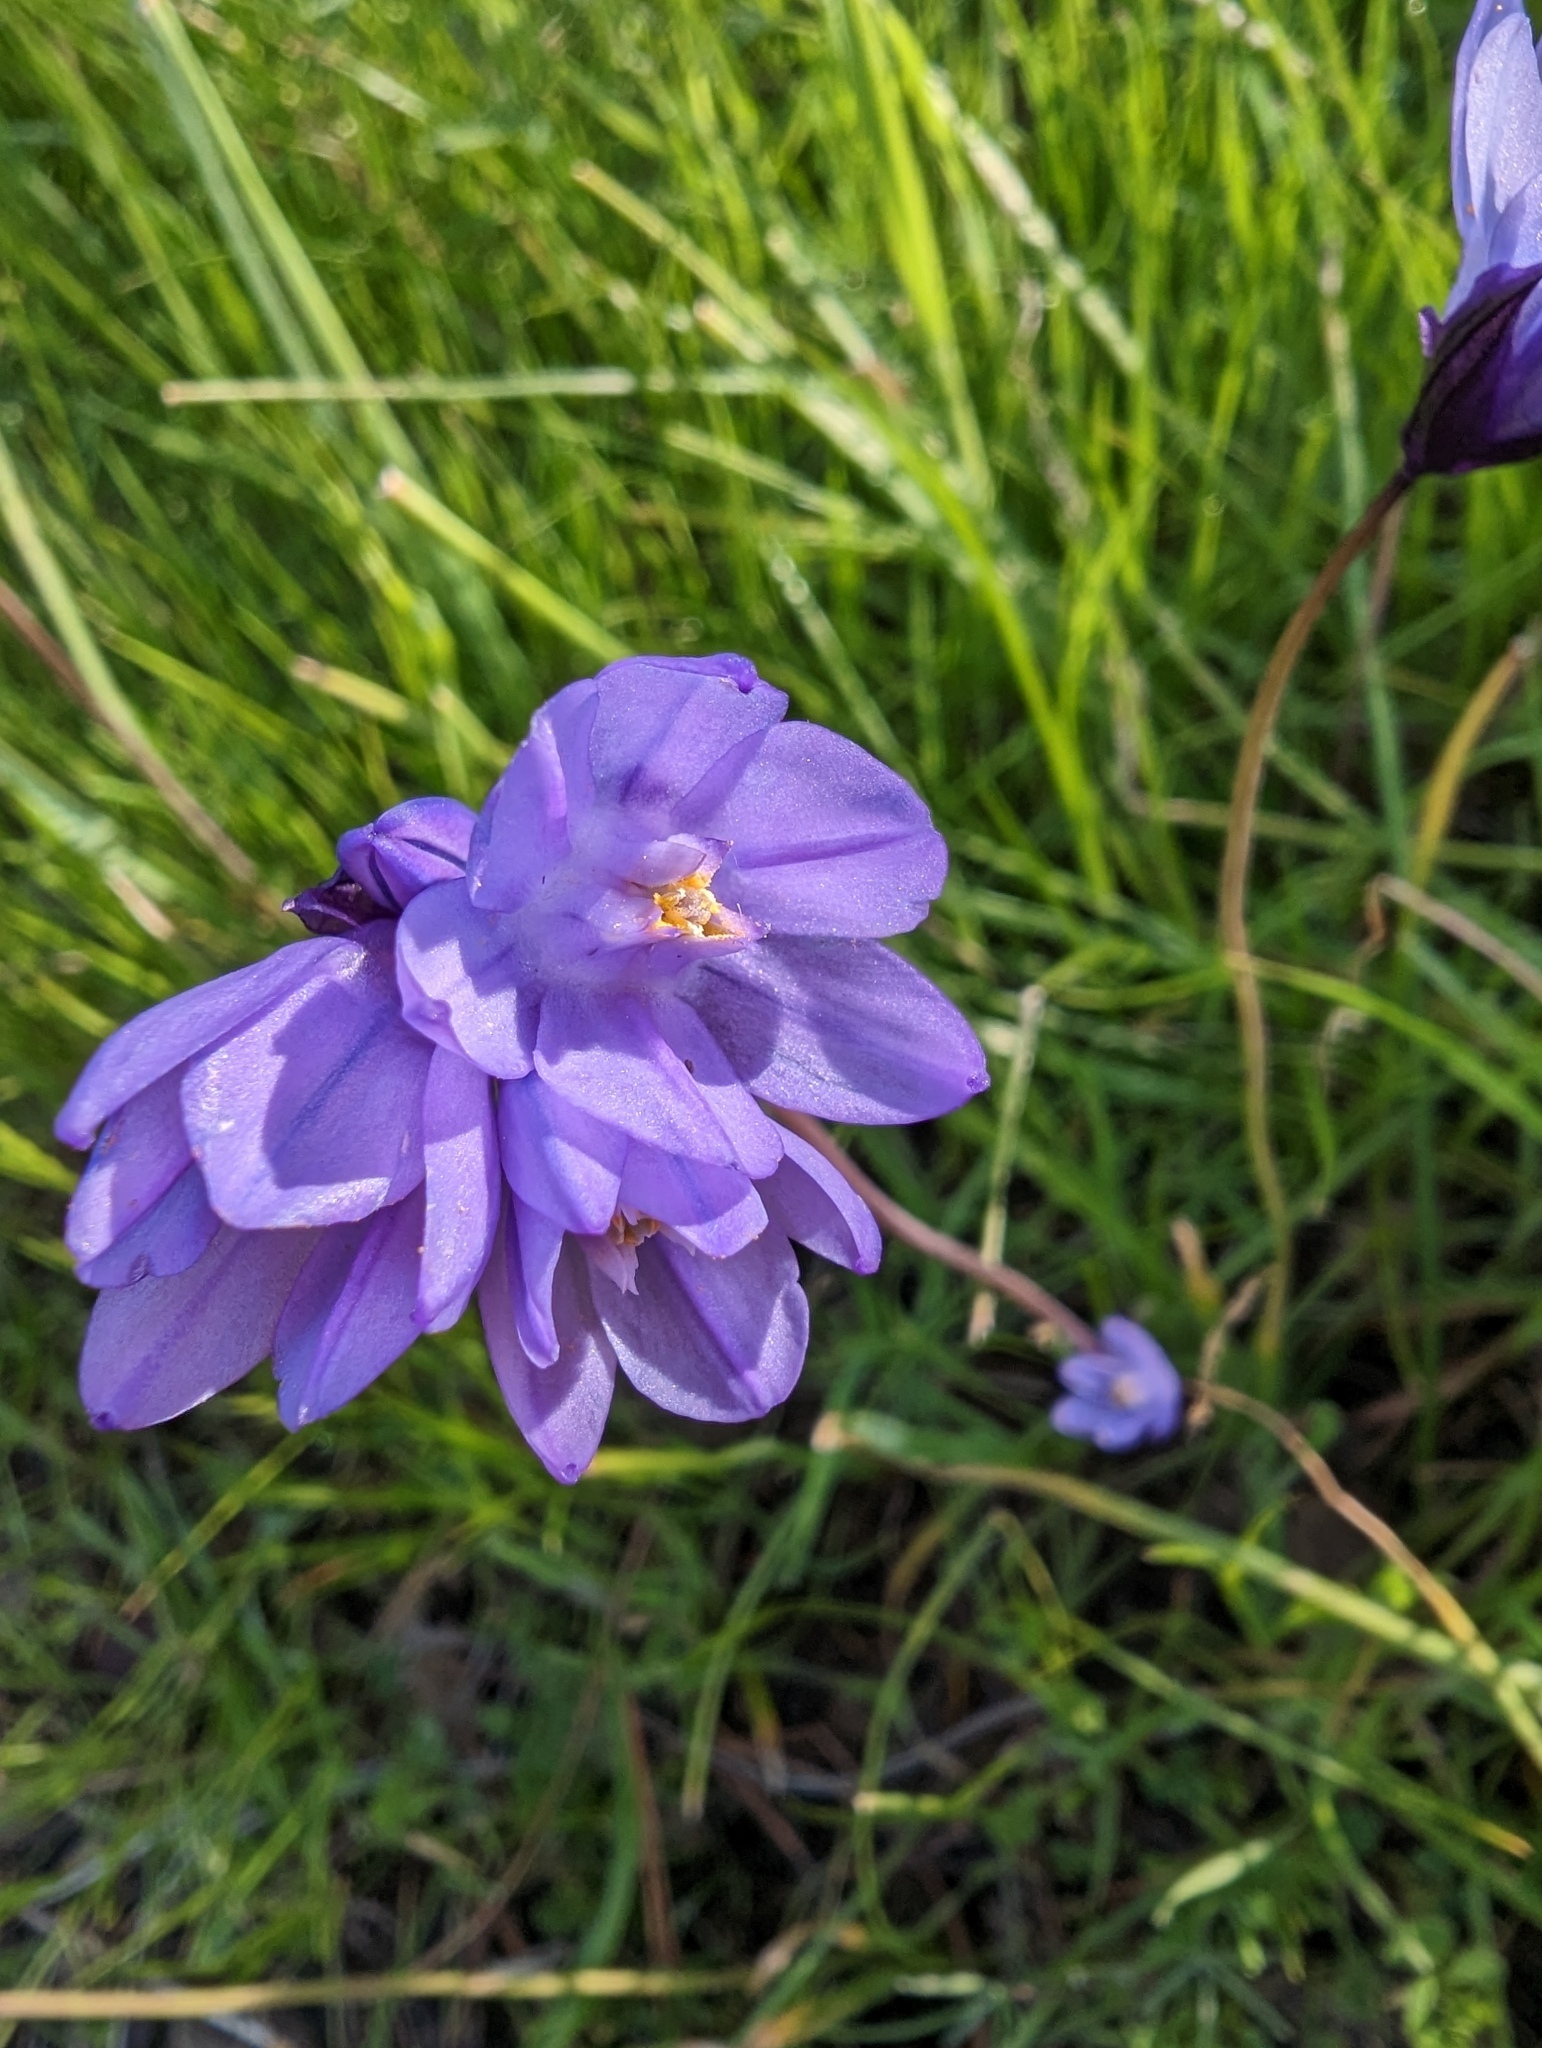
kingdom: Plantae
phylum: Tracheophyta
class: Liliopsida
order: Asparagales
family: Asparagaceae
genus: Dipterostemon
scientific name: Dipterostemon capitatus
